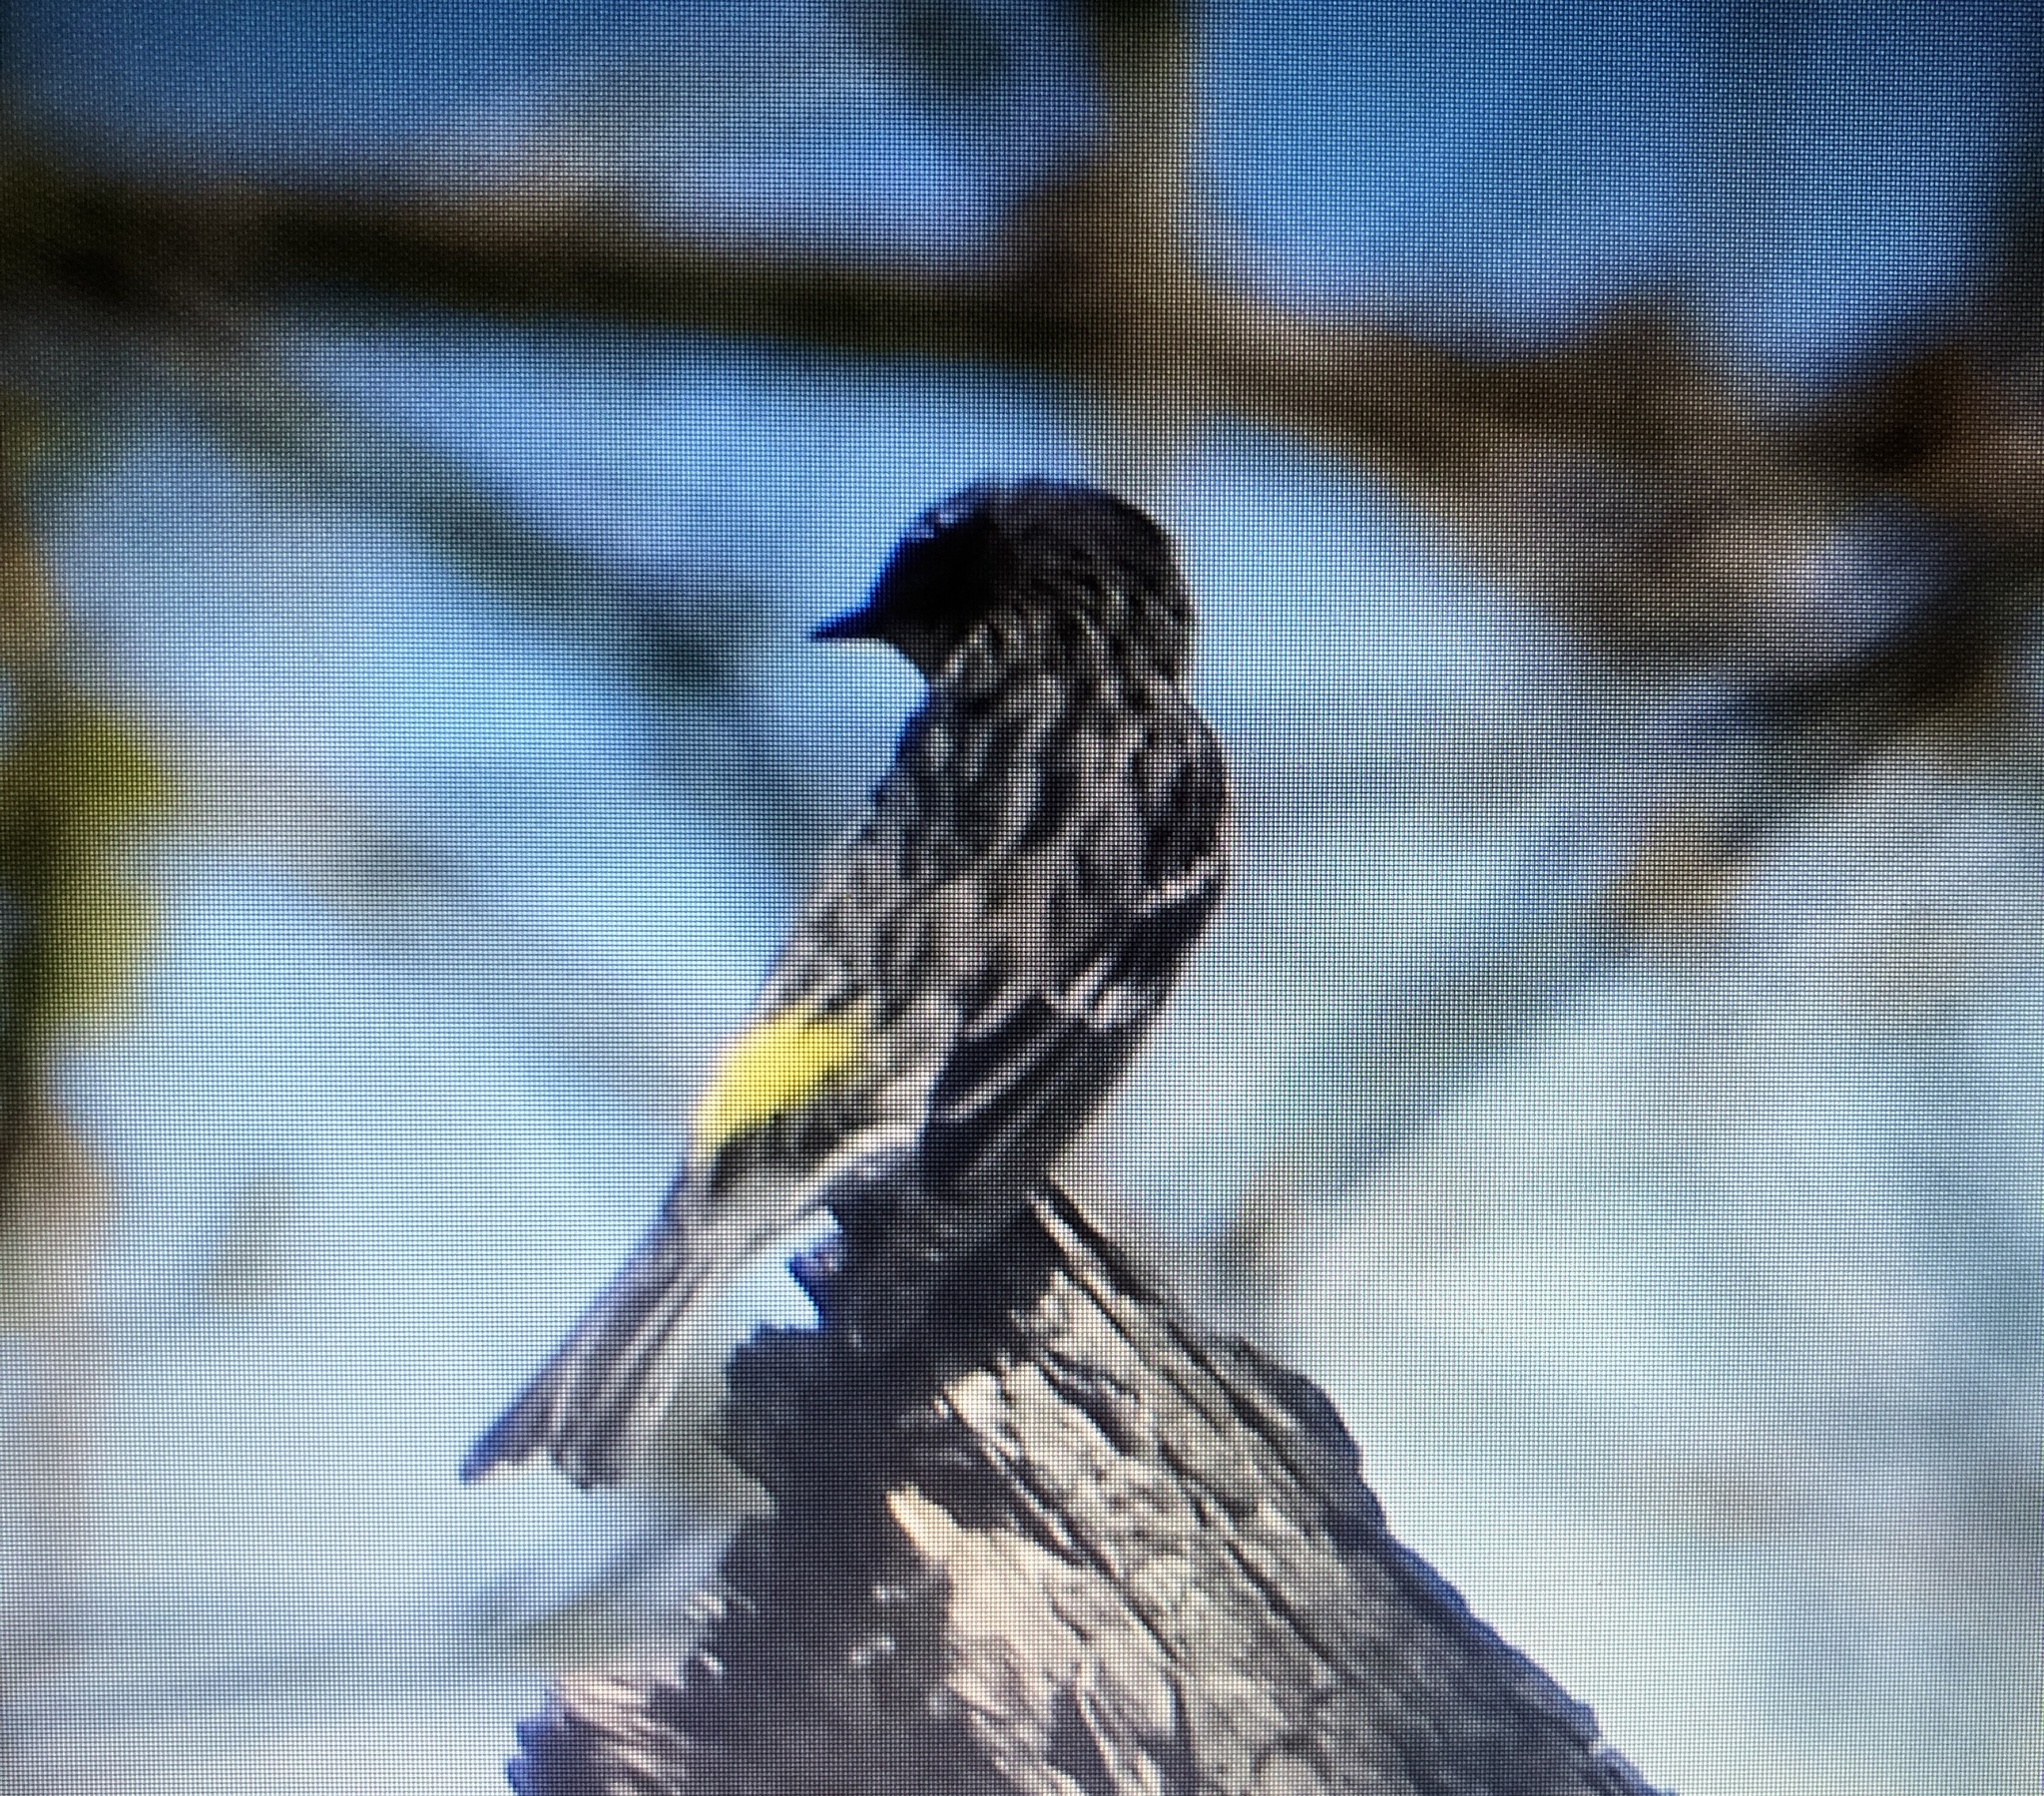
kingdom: Animalia
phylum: Chordata
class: Aves
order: Passeriformes
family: Parulidae
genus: Setophaga
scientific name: Setophaga coronata
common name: Myrtle warbler
